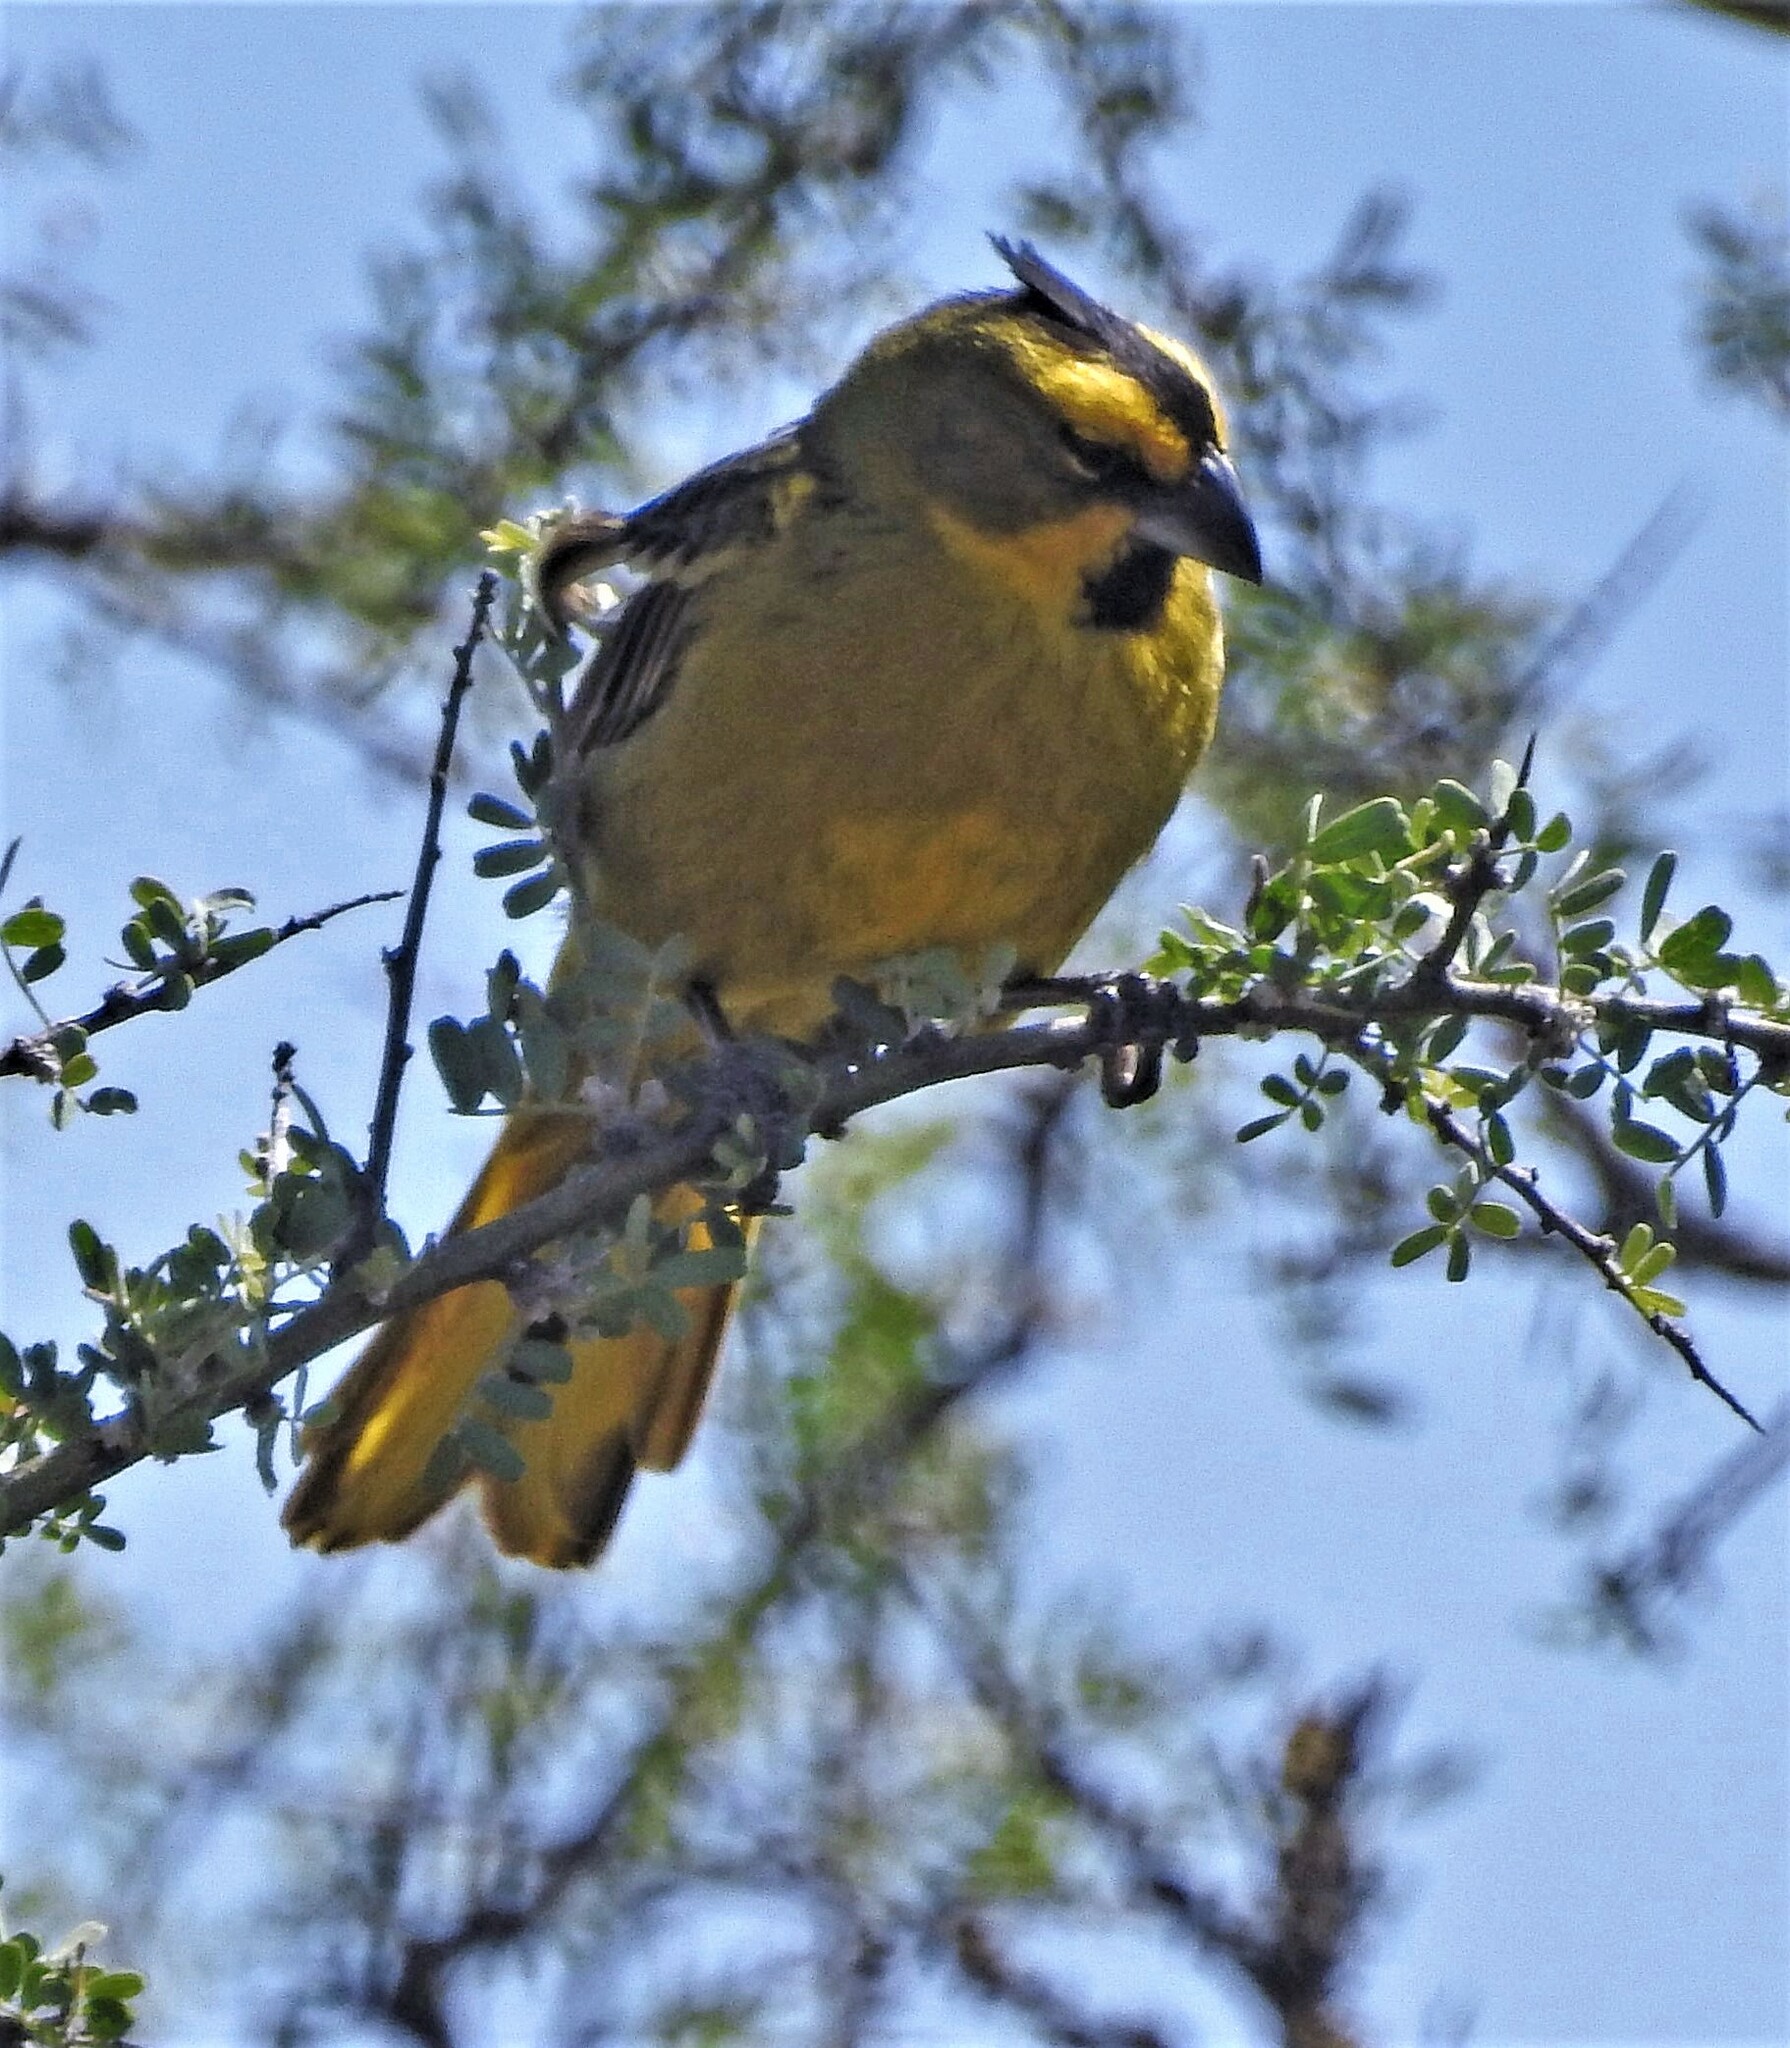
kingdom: Animalia
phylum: Chordata
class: Aves
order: Passeriformes
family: Thraupidae
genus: Gubernatrix
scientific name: Gubernatrix cristata
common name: Yellow cardinal
